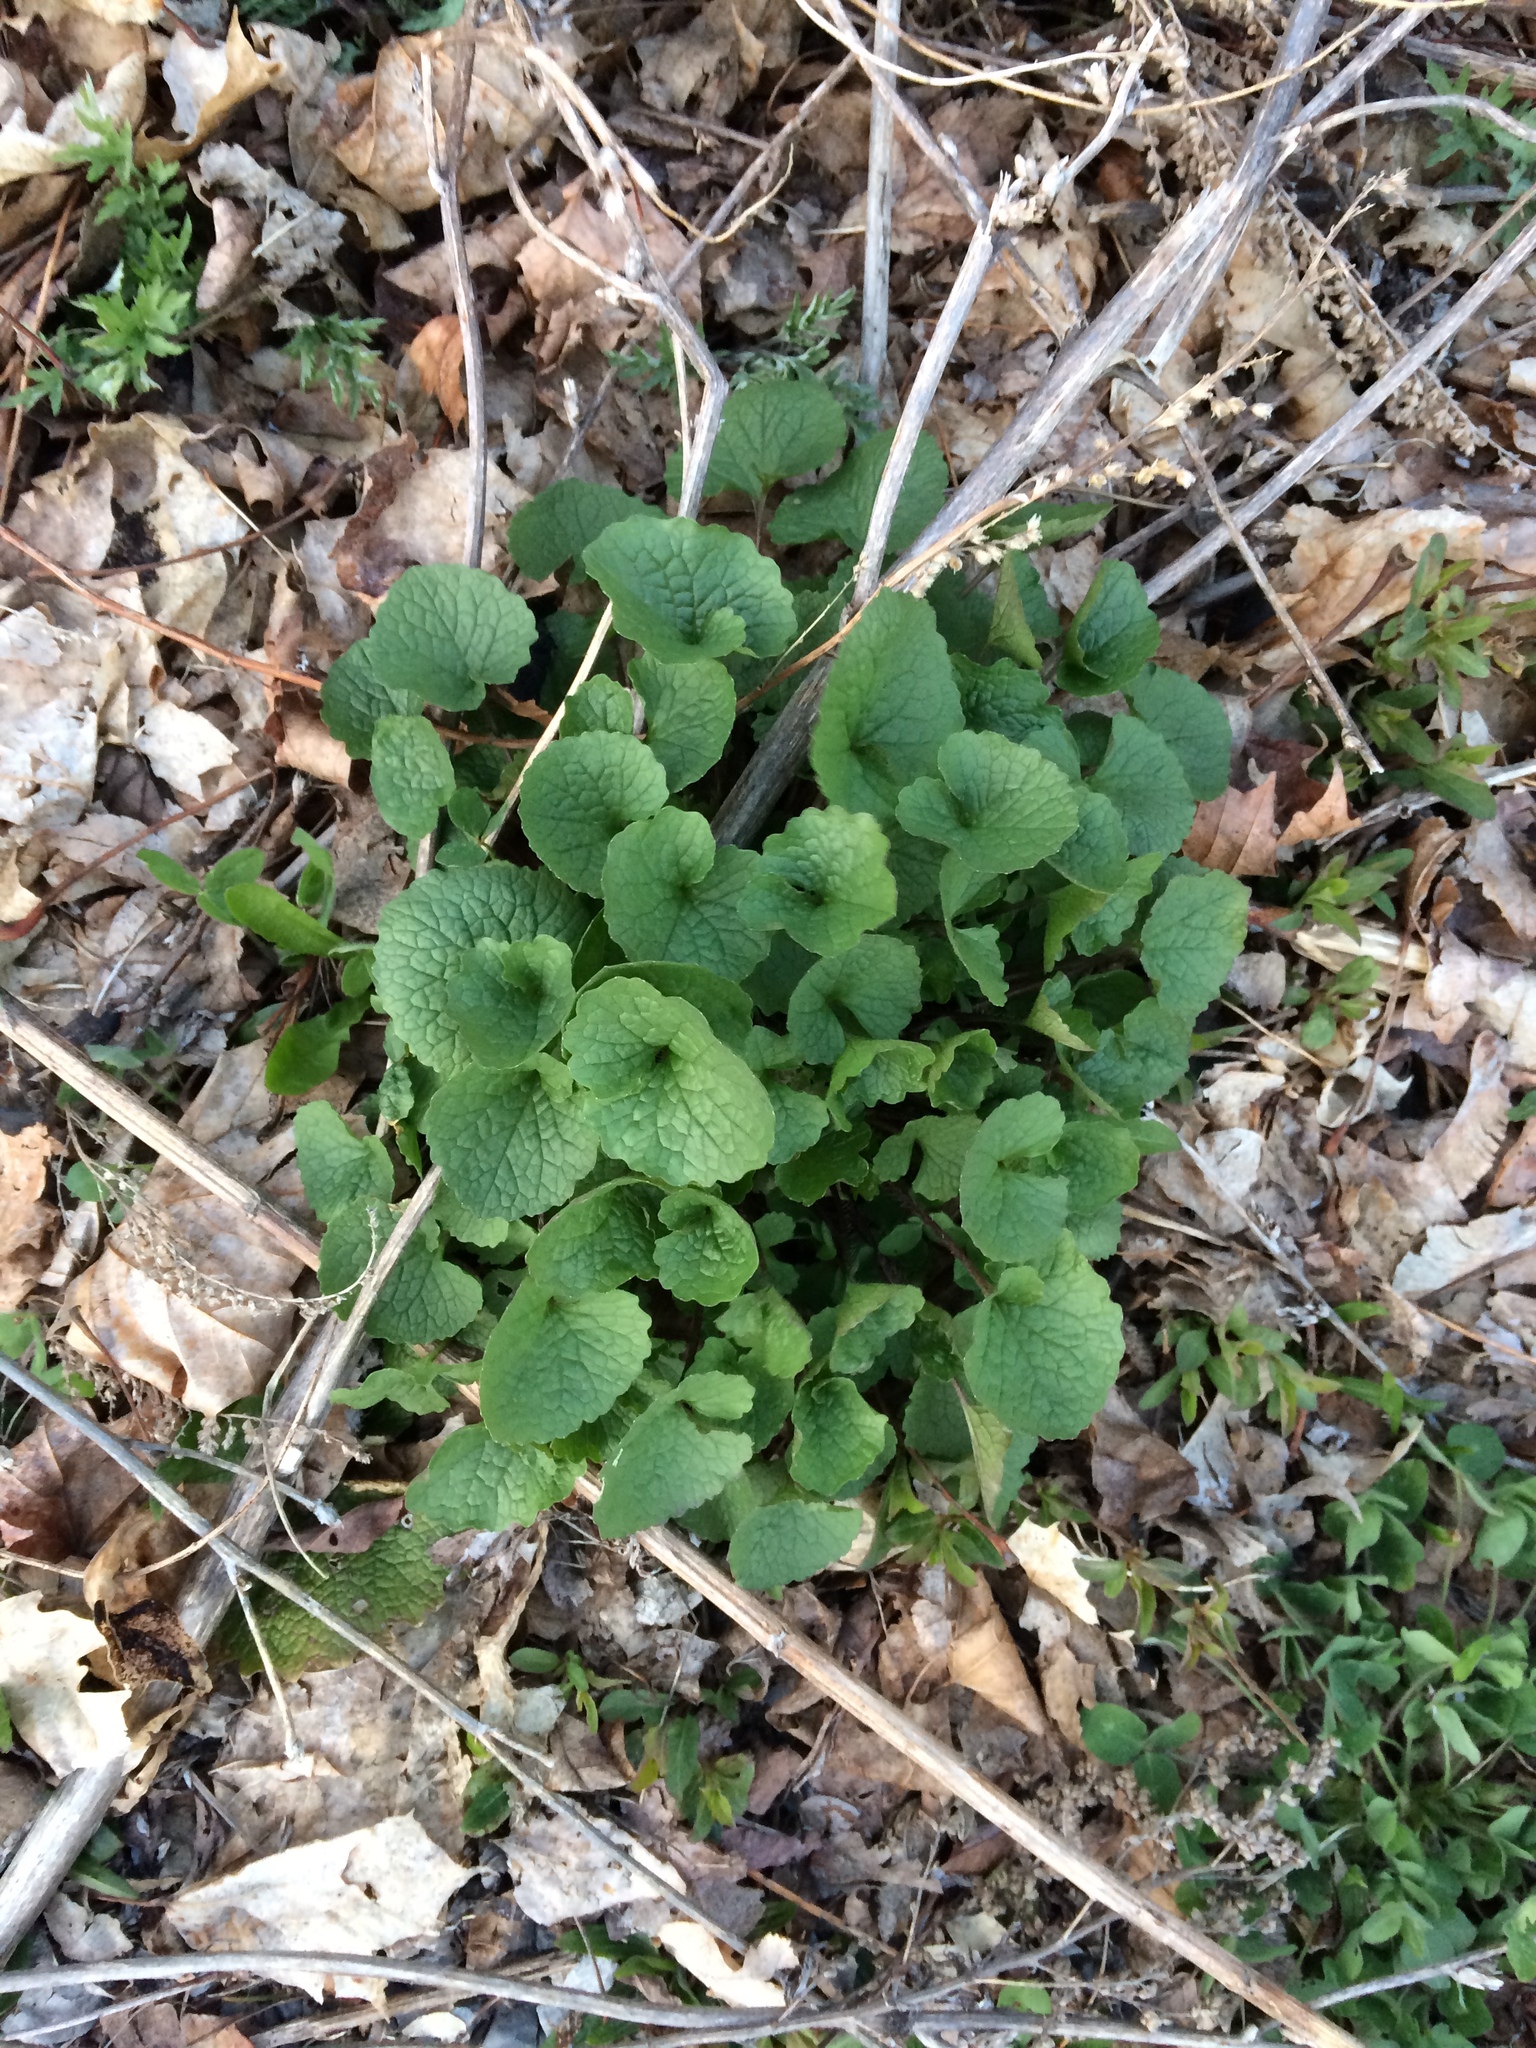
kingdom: Plantae
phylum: Tracheophyta
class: Magnoliopsida
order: Brassicales
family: Brassicaceae
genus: Alliaria
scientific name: Alliaria petiolata
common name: Garlic mustard
